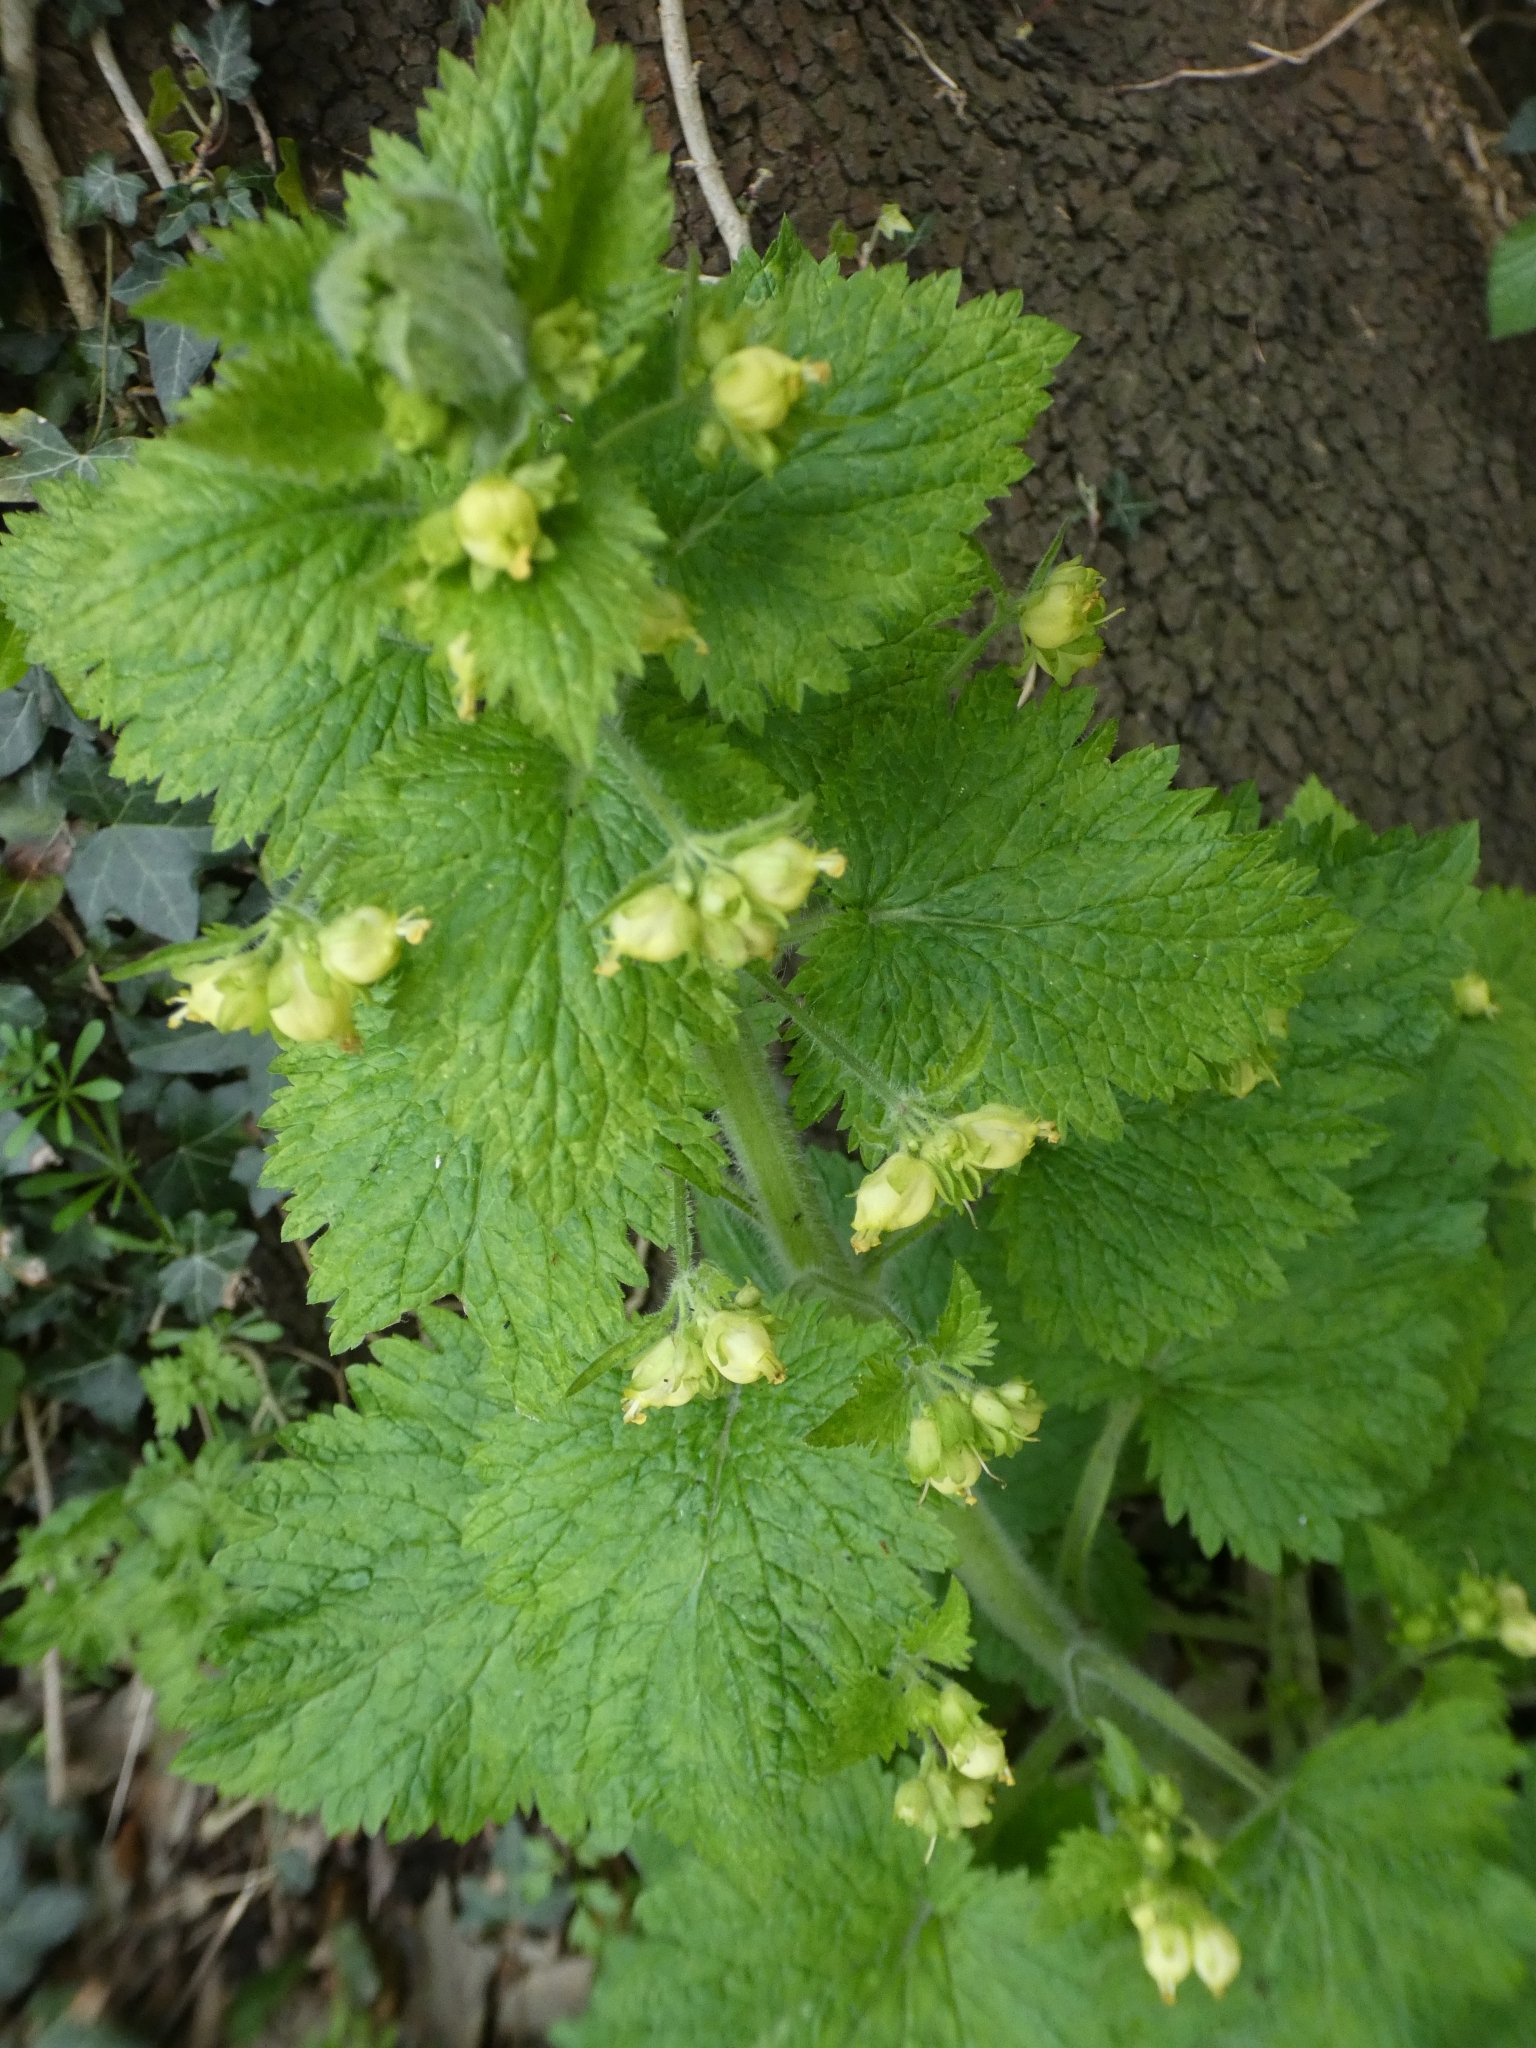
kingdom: Plantae
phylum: Tracheophyta
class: Magnoliopsida
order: Lamiales
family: Scrophulariaceae
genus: Scrophularia
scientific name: Scrophularia vernalis
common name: Yellow figwort
